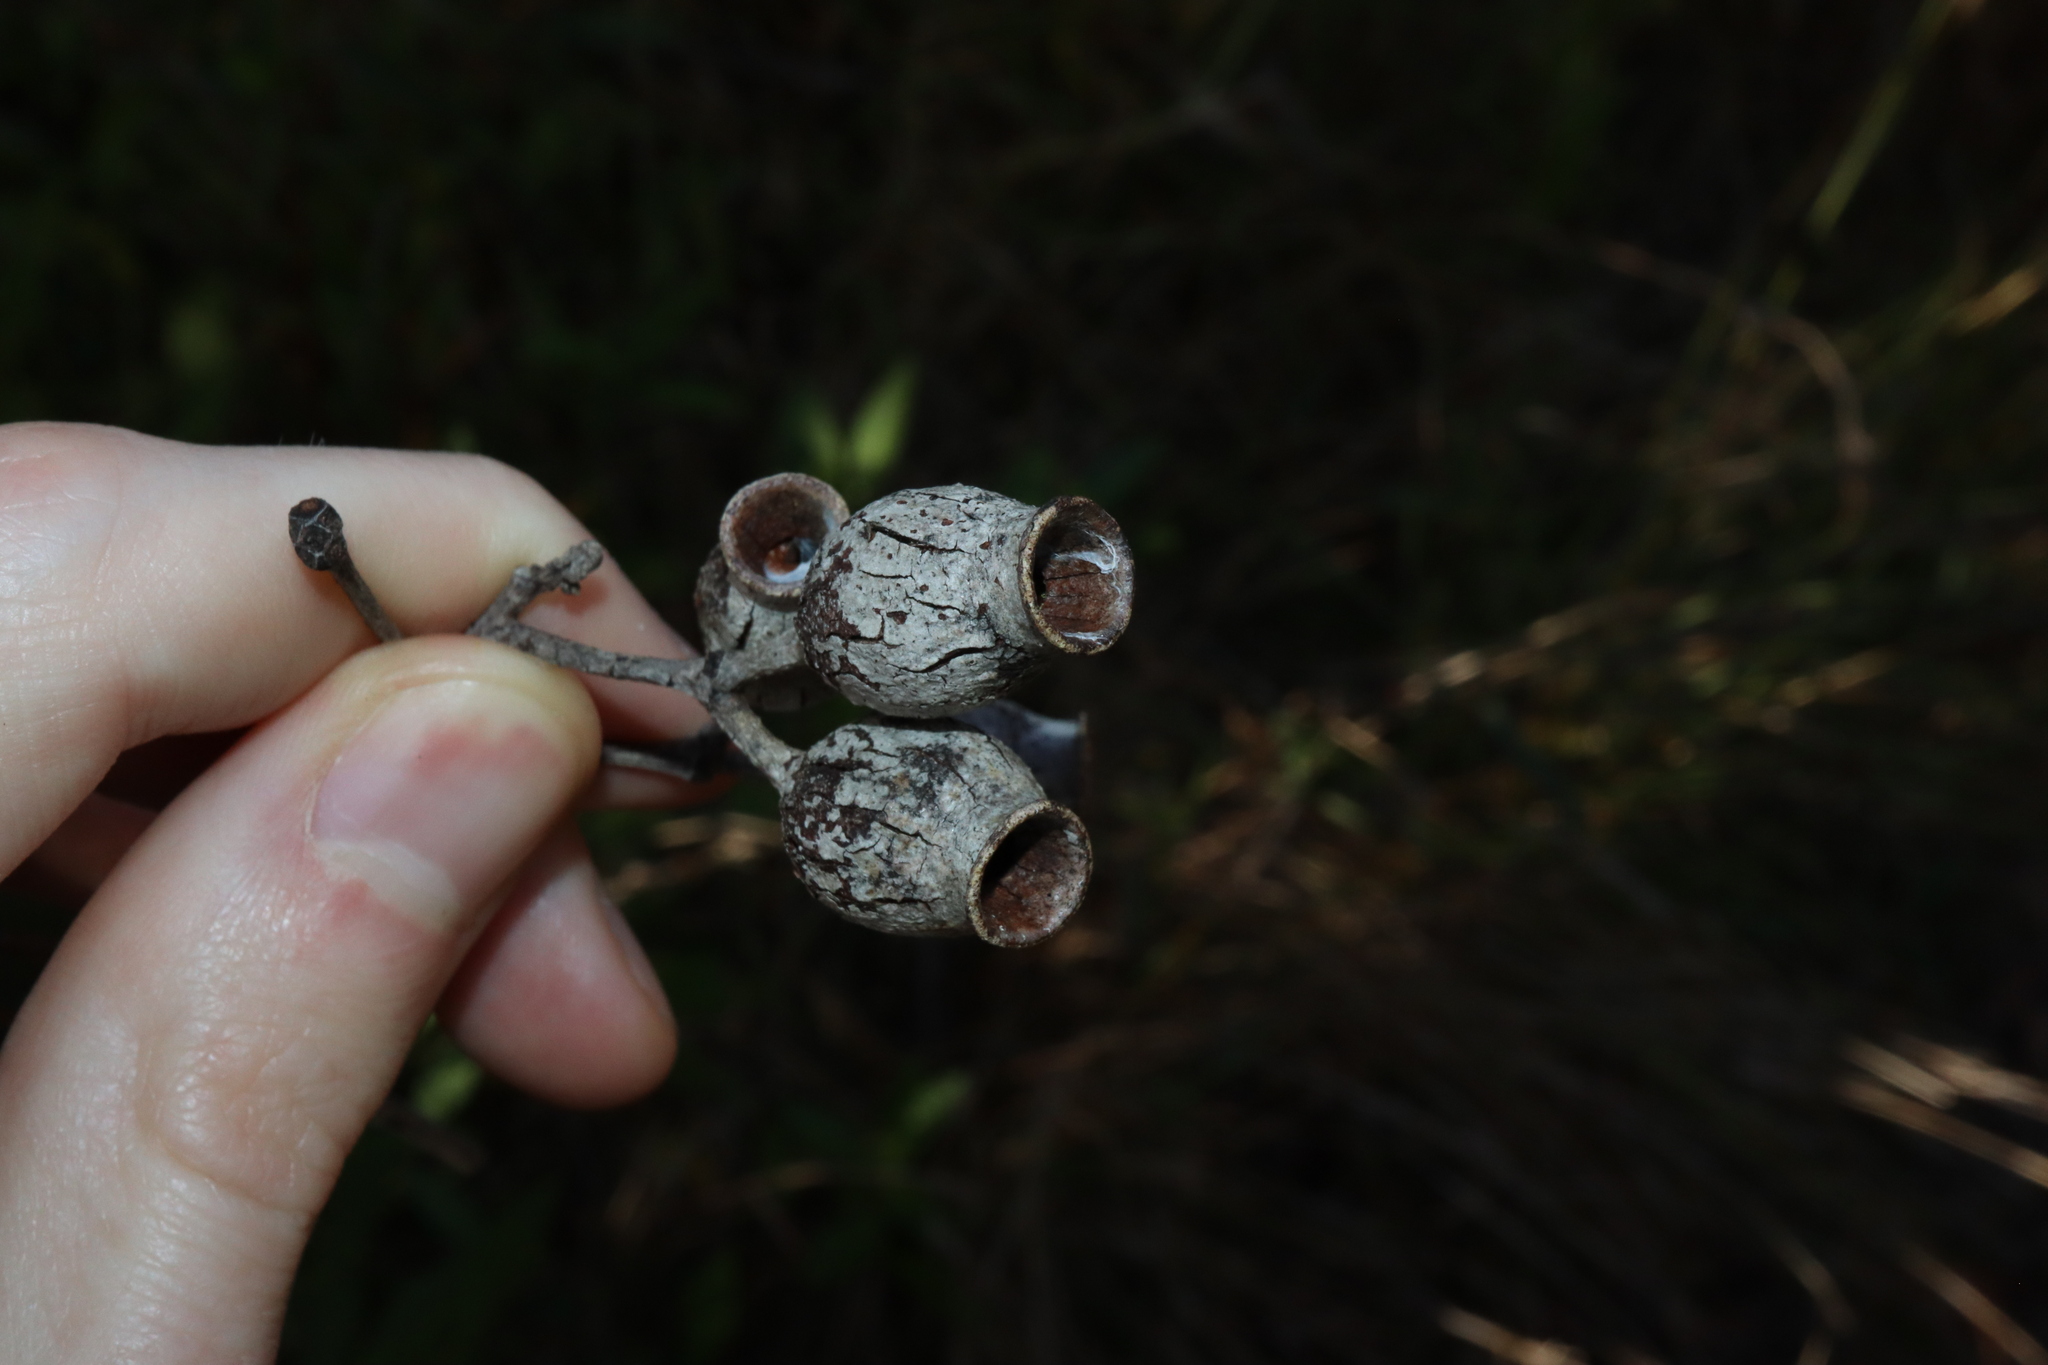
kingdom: Plantae
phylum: Tracheophyta
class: Magnoliopsida
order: Myrtales
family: Myrtaceae
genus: Corymbia
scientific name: Corymbia gummifera
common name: Red bloodwood
